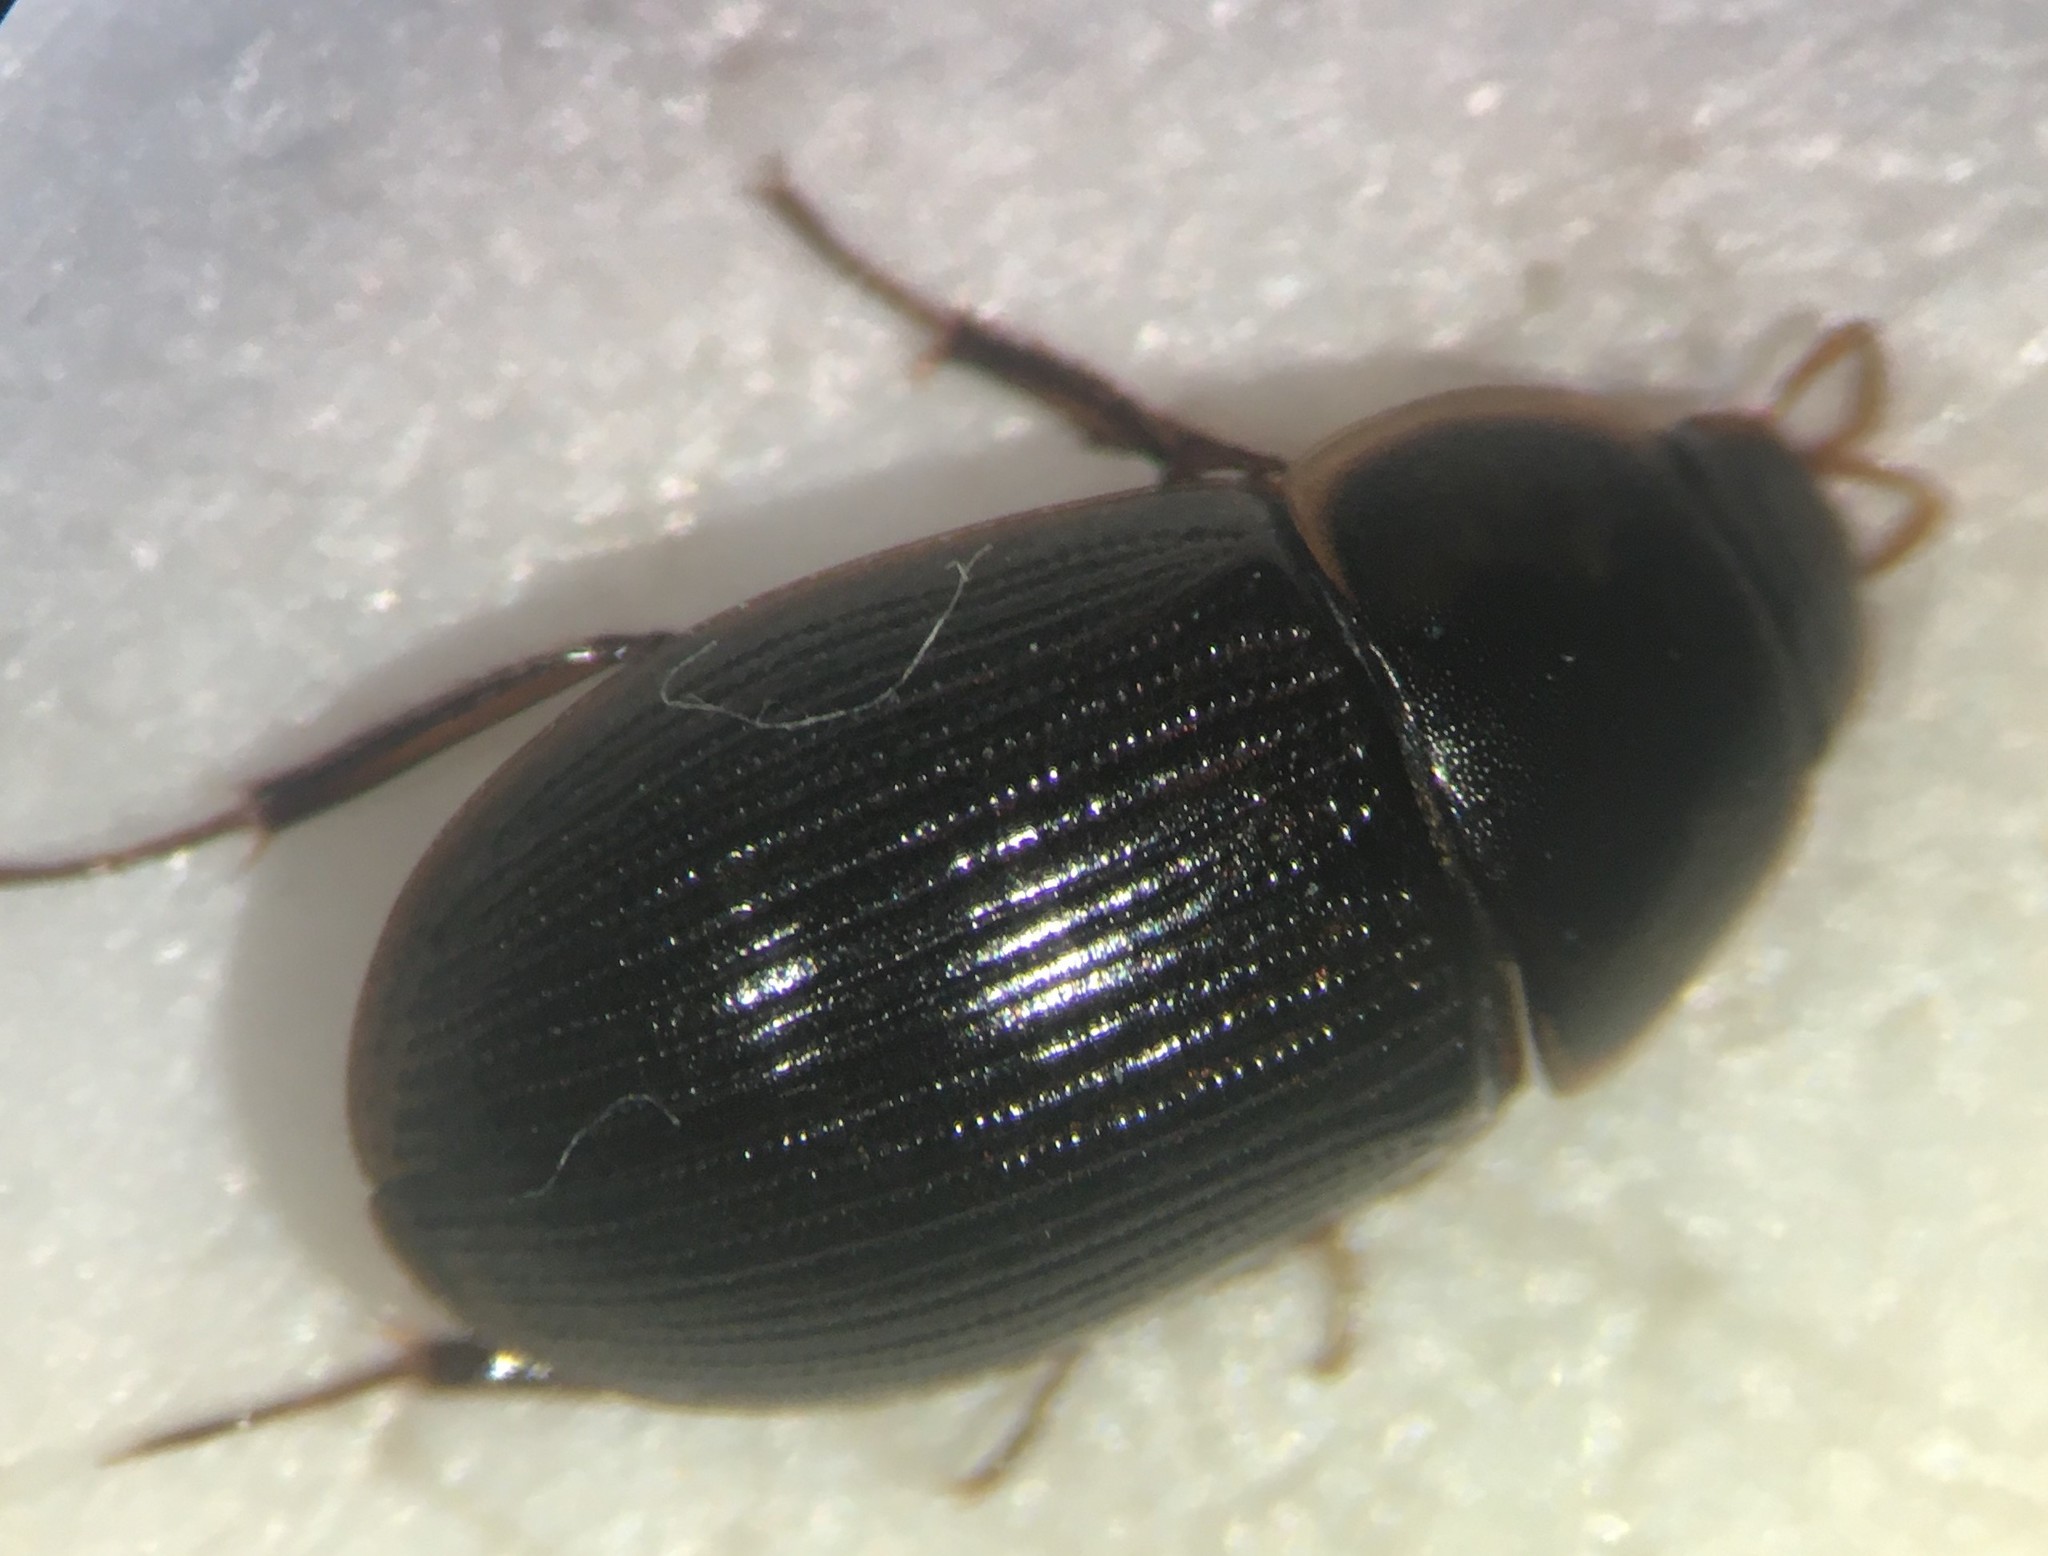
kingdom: Animalia
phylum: Arthropoda
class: Insecta
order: Coleoptera
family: Hydrophilidae
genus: Helochares
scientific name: Helochares maculicollis
